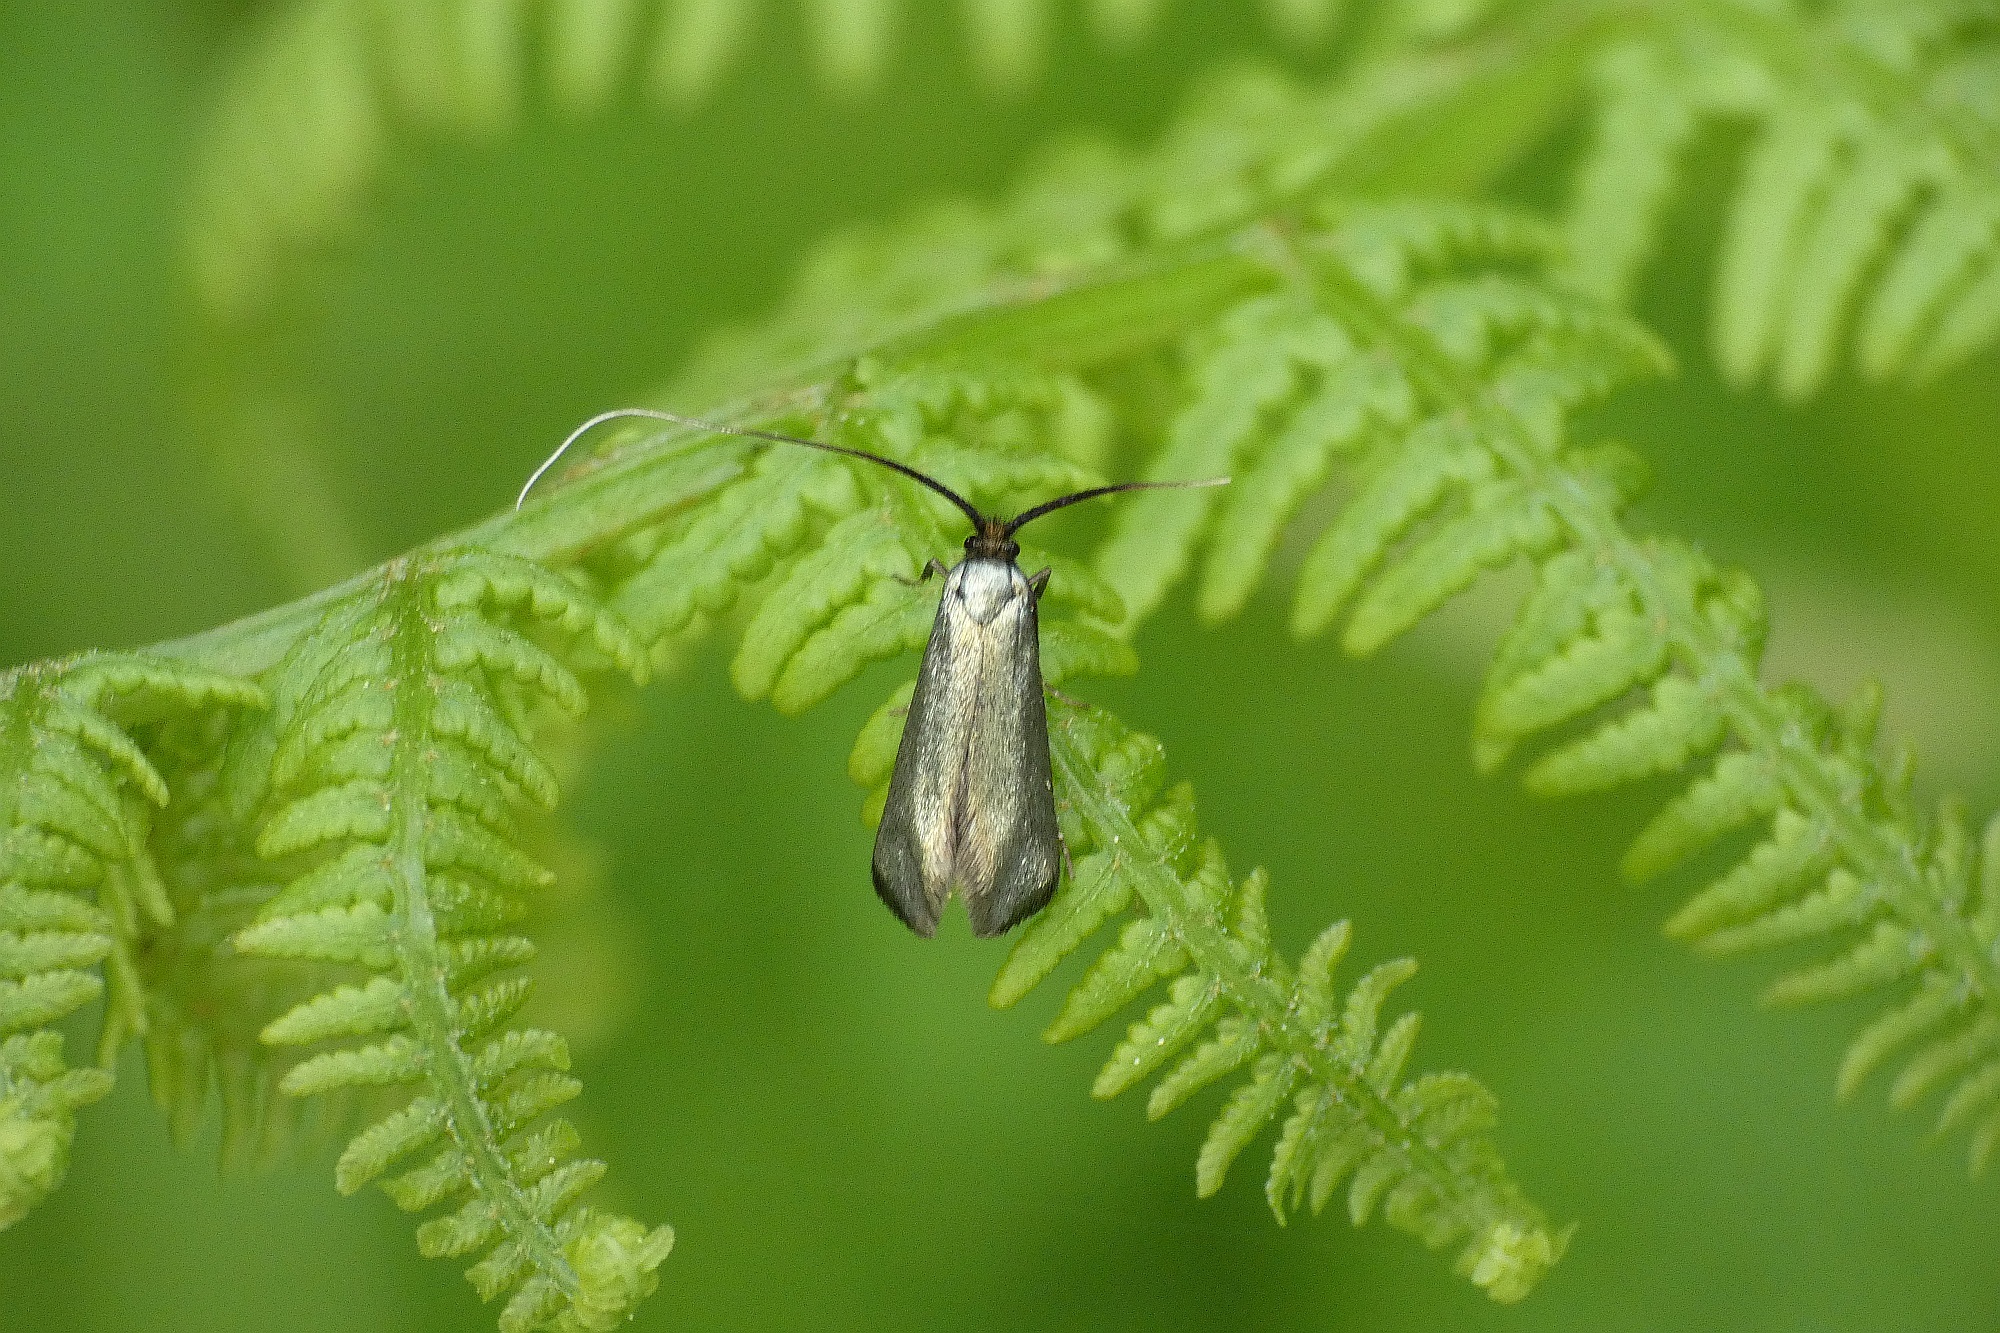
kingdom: Animalia
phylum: Arthropoda
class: Insecta
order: Lepidoptera
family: Adelidae
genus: Adela
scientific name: Adela viridella
